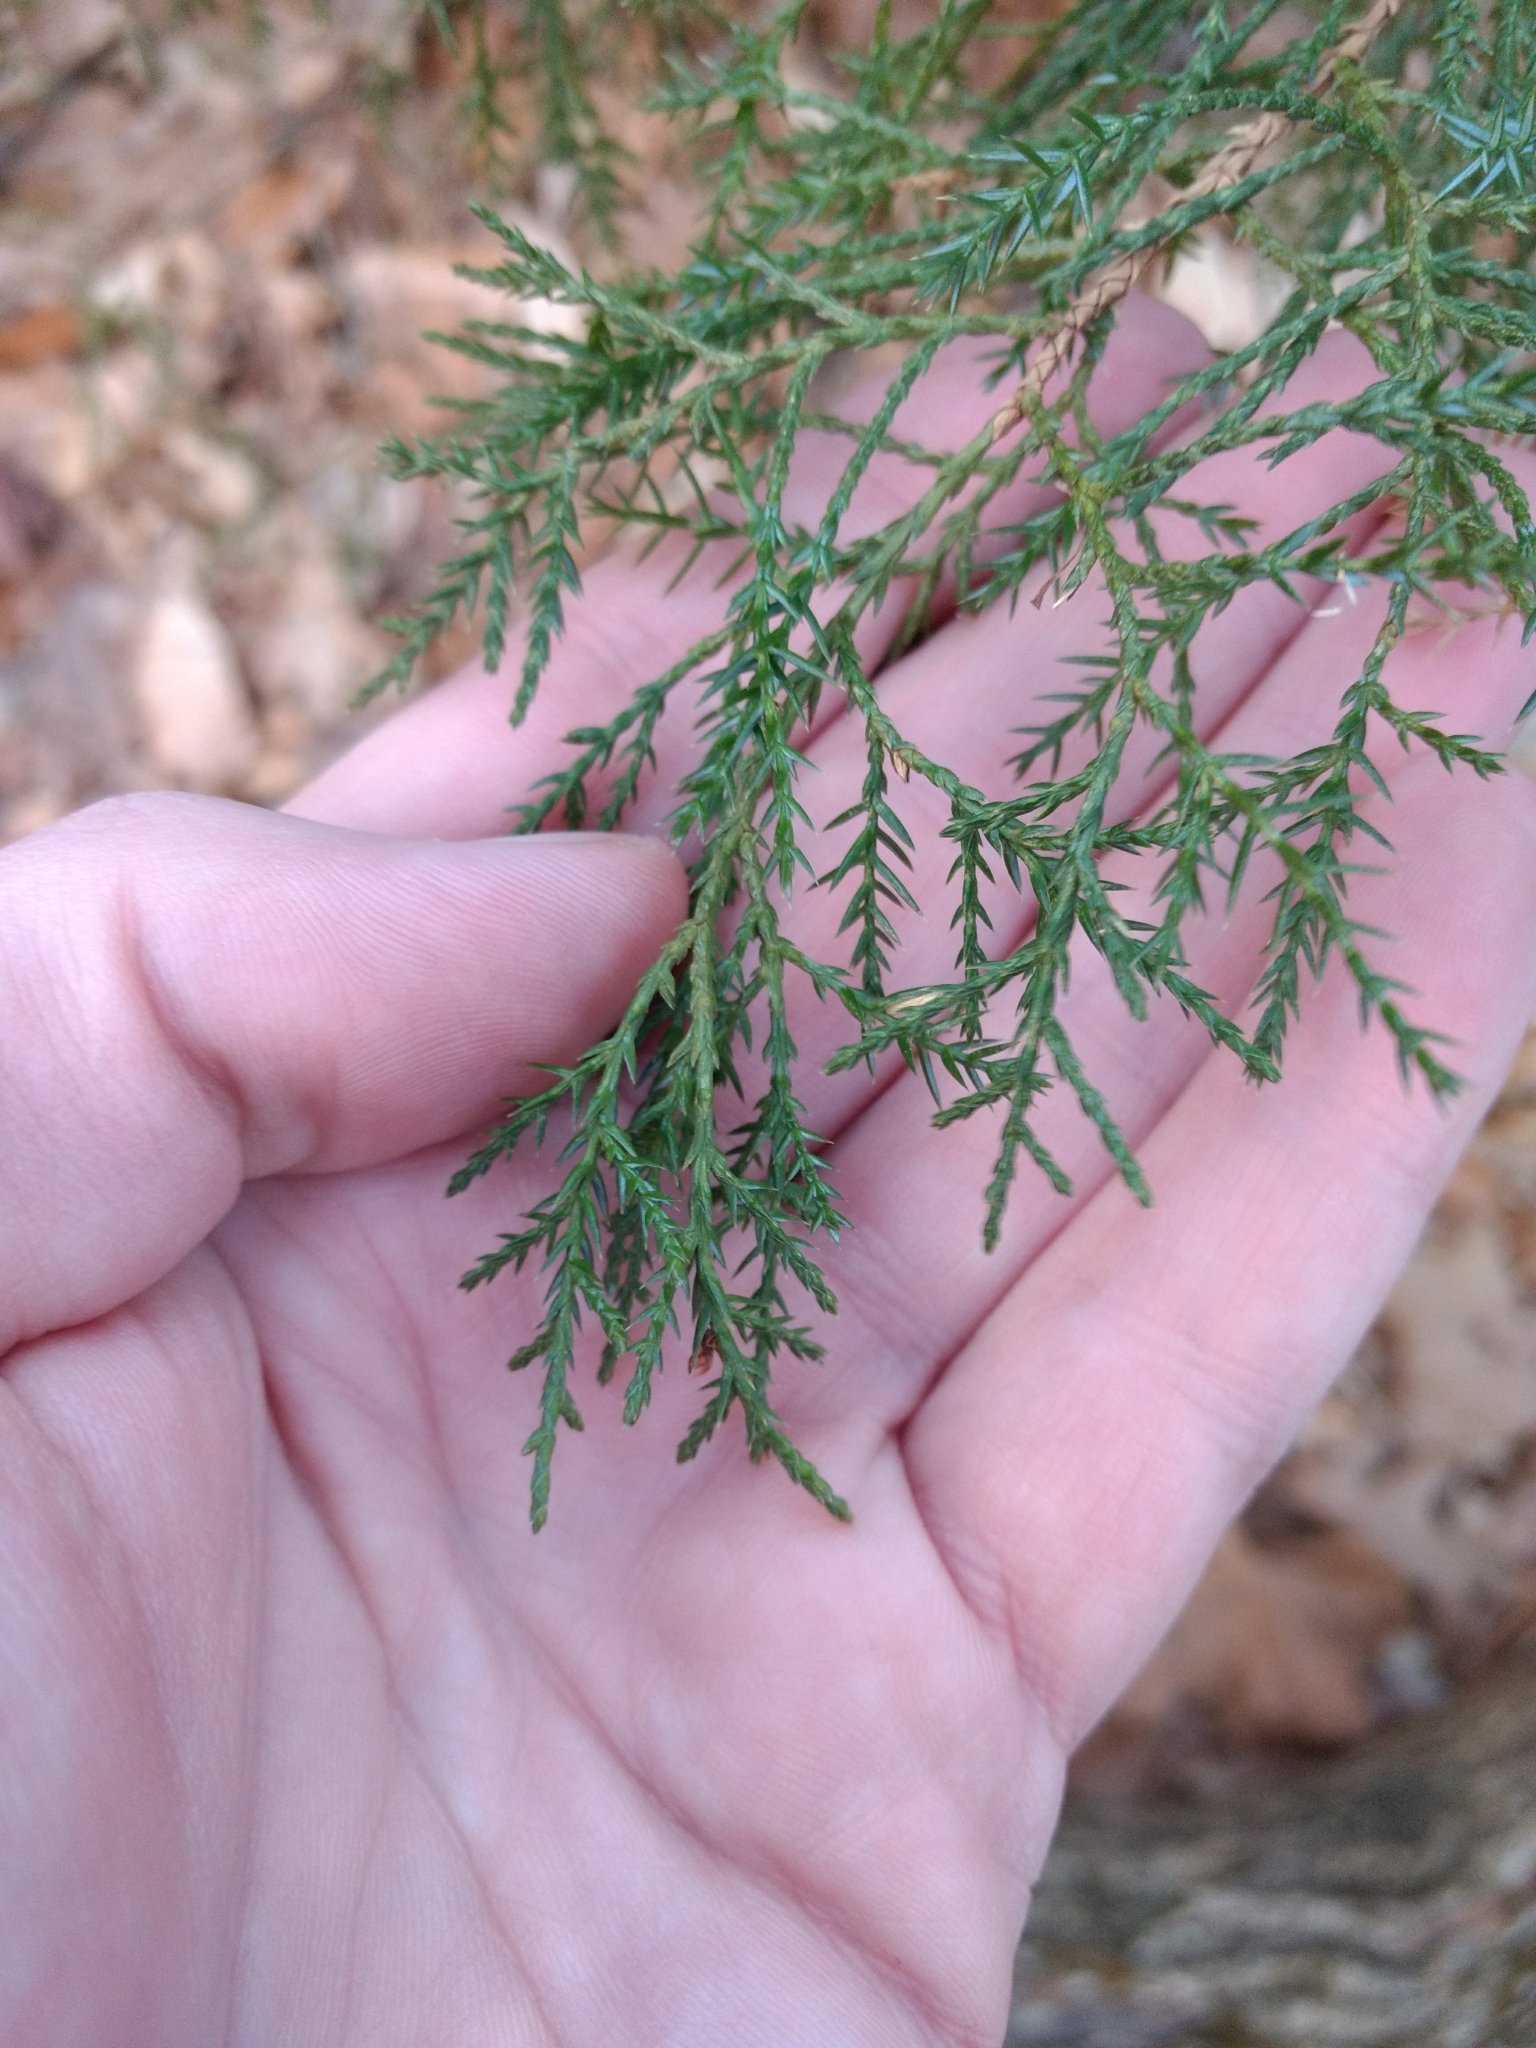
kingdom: Plantae
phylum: Tracheophyta
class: Pinopsida
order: Pinales
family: Cupressaceae
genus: Juniperus
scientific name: Juniperus virginiana
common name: Red juniper
